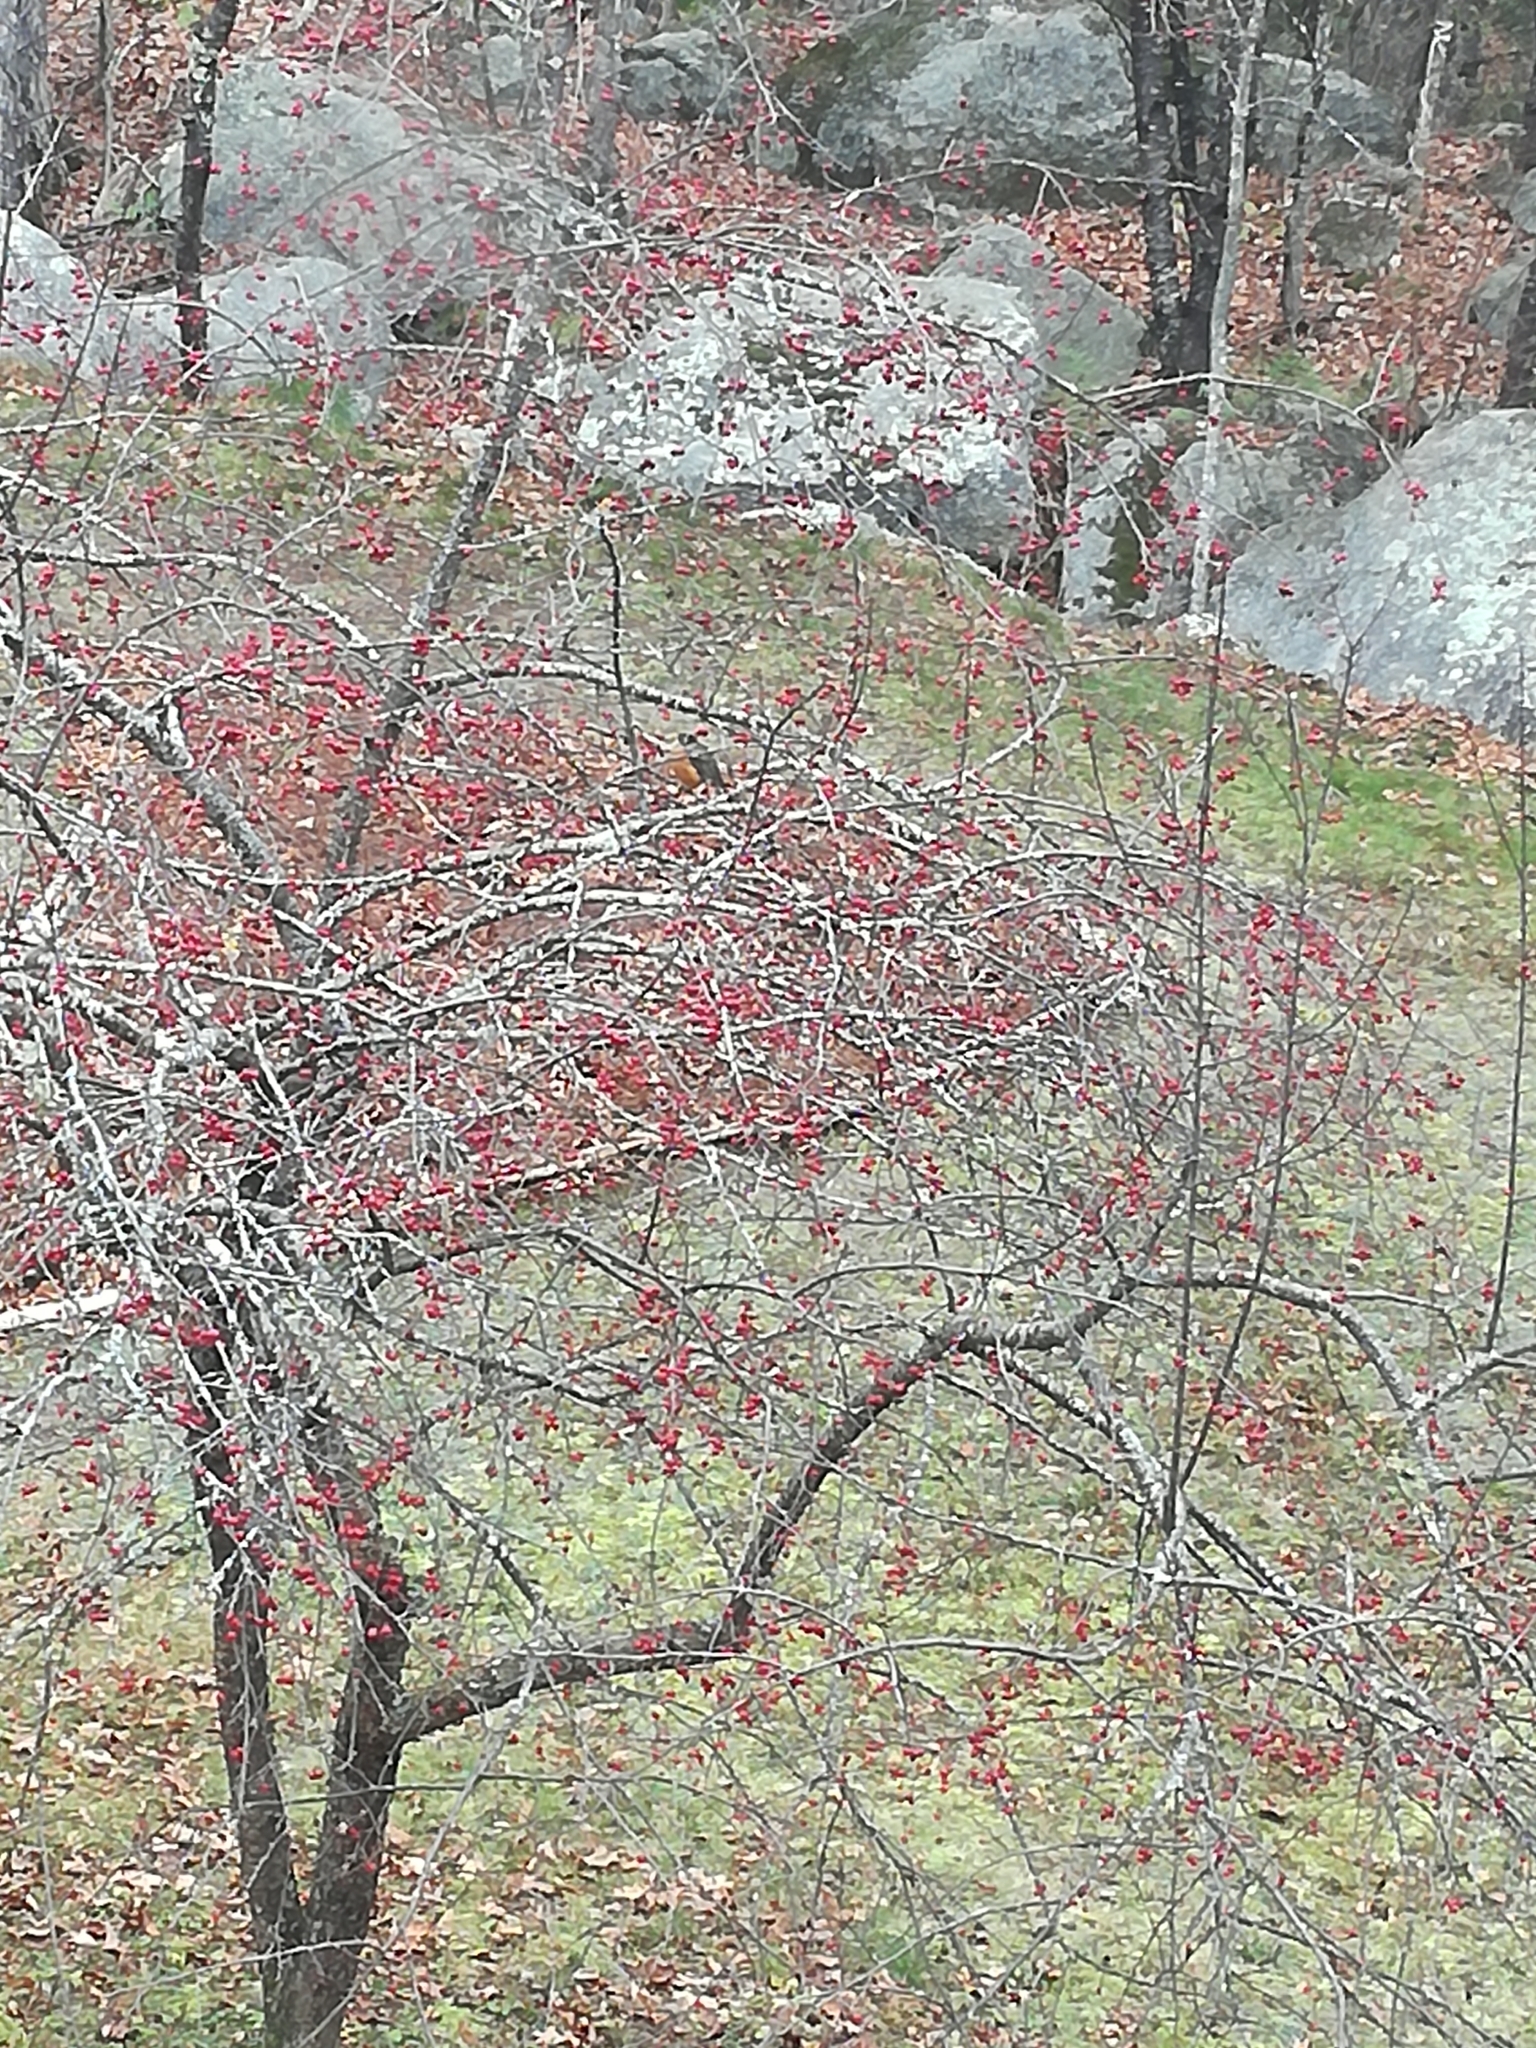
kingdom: Animalia
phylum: Chordata
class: Aves
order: Passeriformes
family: Turdidae
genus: Turdus
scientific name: Turdus migratorius
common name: American robin
